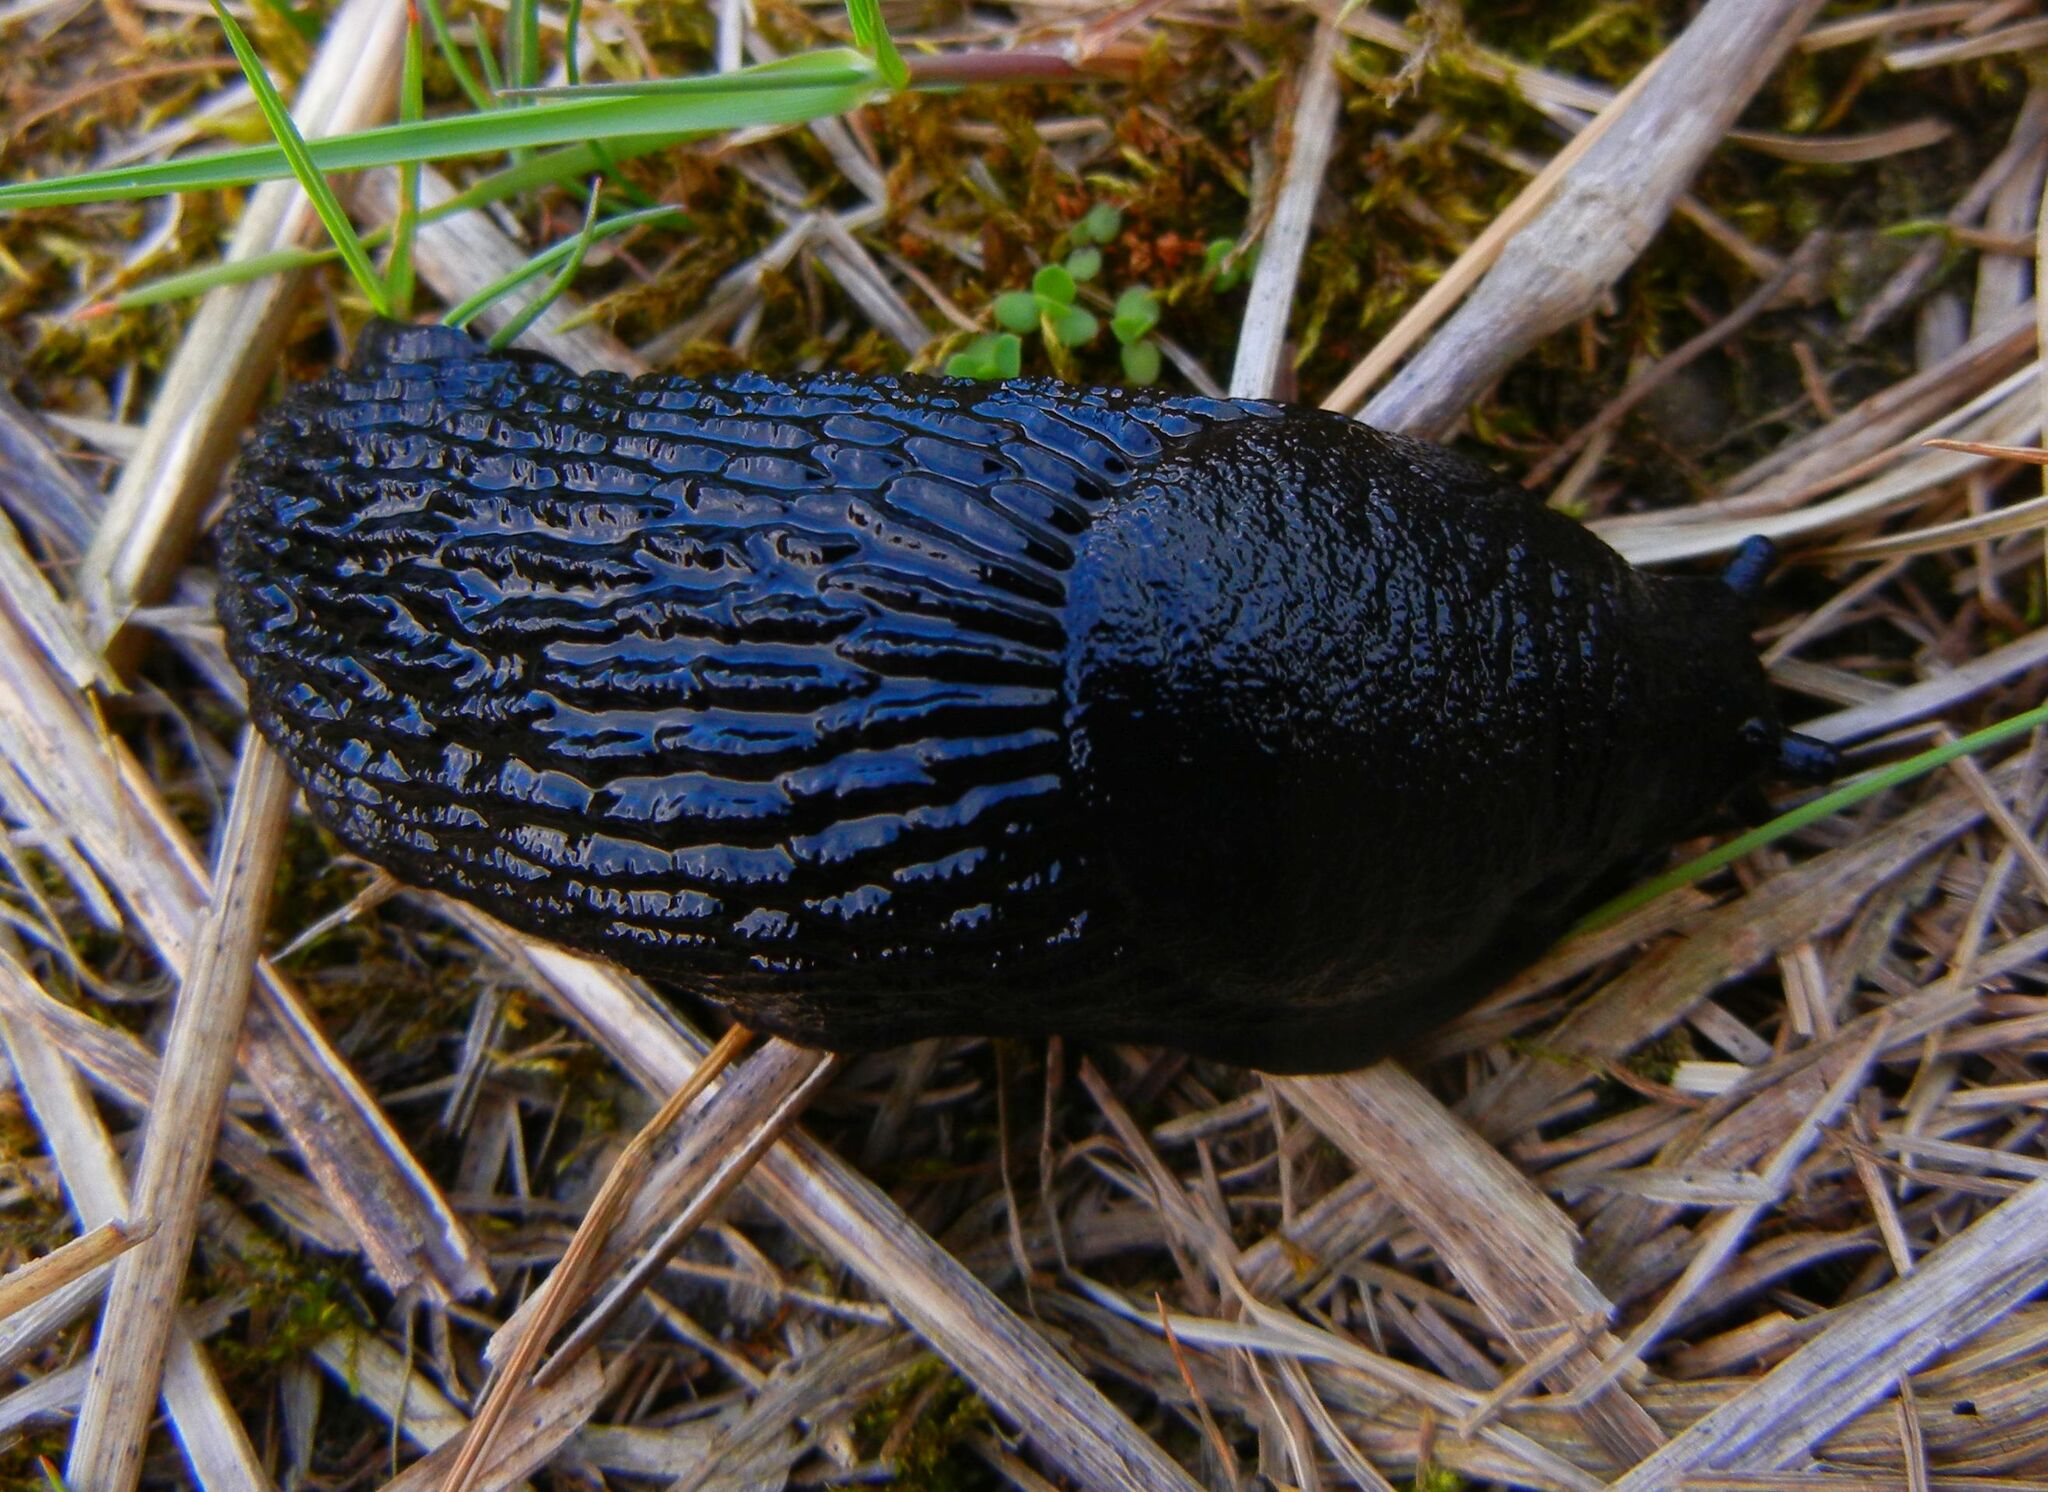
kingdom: Animalia
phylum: Mollusca
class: Gastropoda
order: Stylommatophora
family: Arionidae
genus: Arion
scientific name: Arion ater
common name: Black arion
